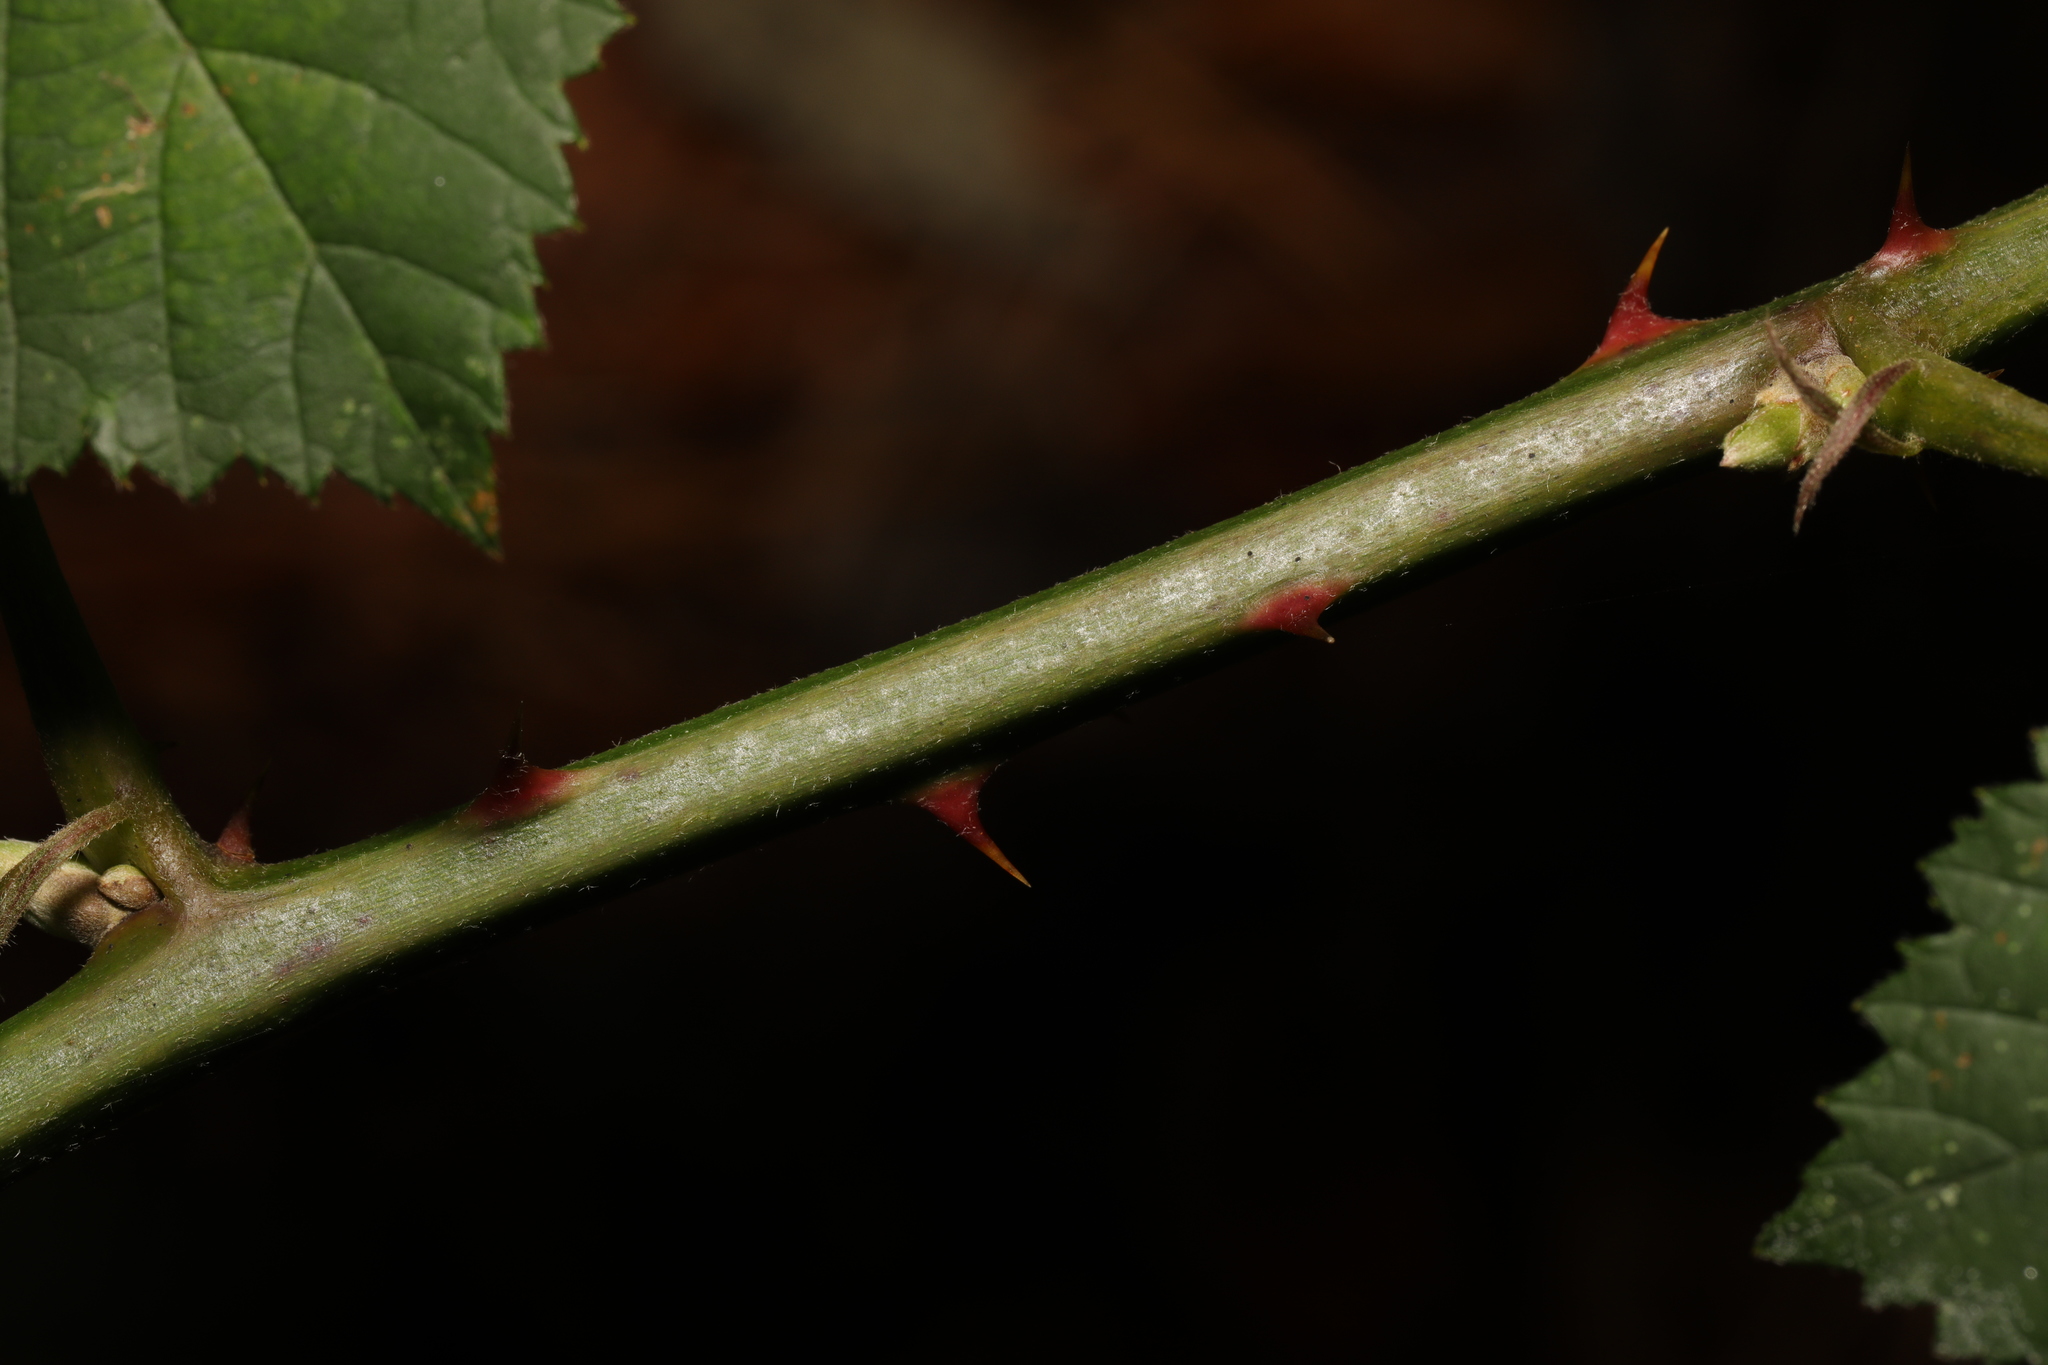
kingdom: Plantae
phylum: Tracheophyta
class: Magnoliopsida
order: Rosales
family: Rosaceae
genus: Rubus
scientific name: Rubus armeniacus
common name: Himalayan blackberry
